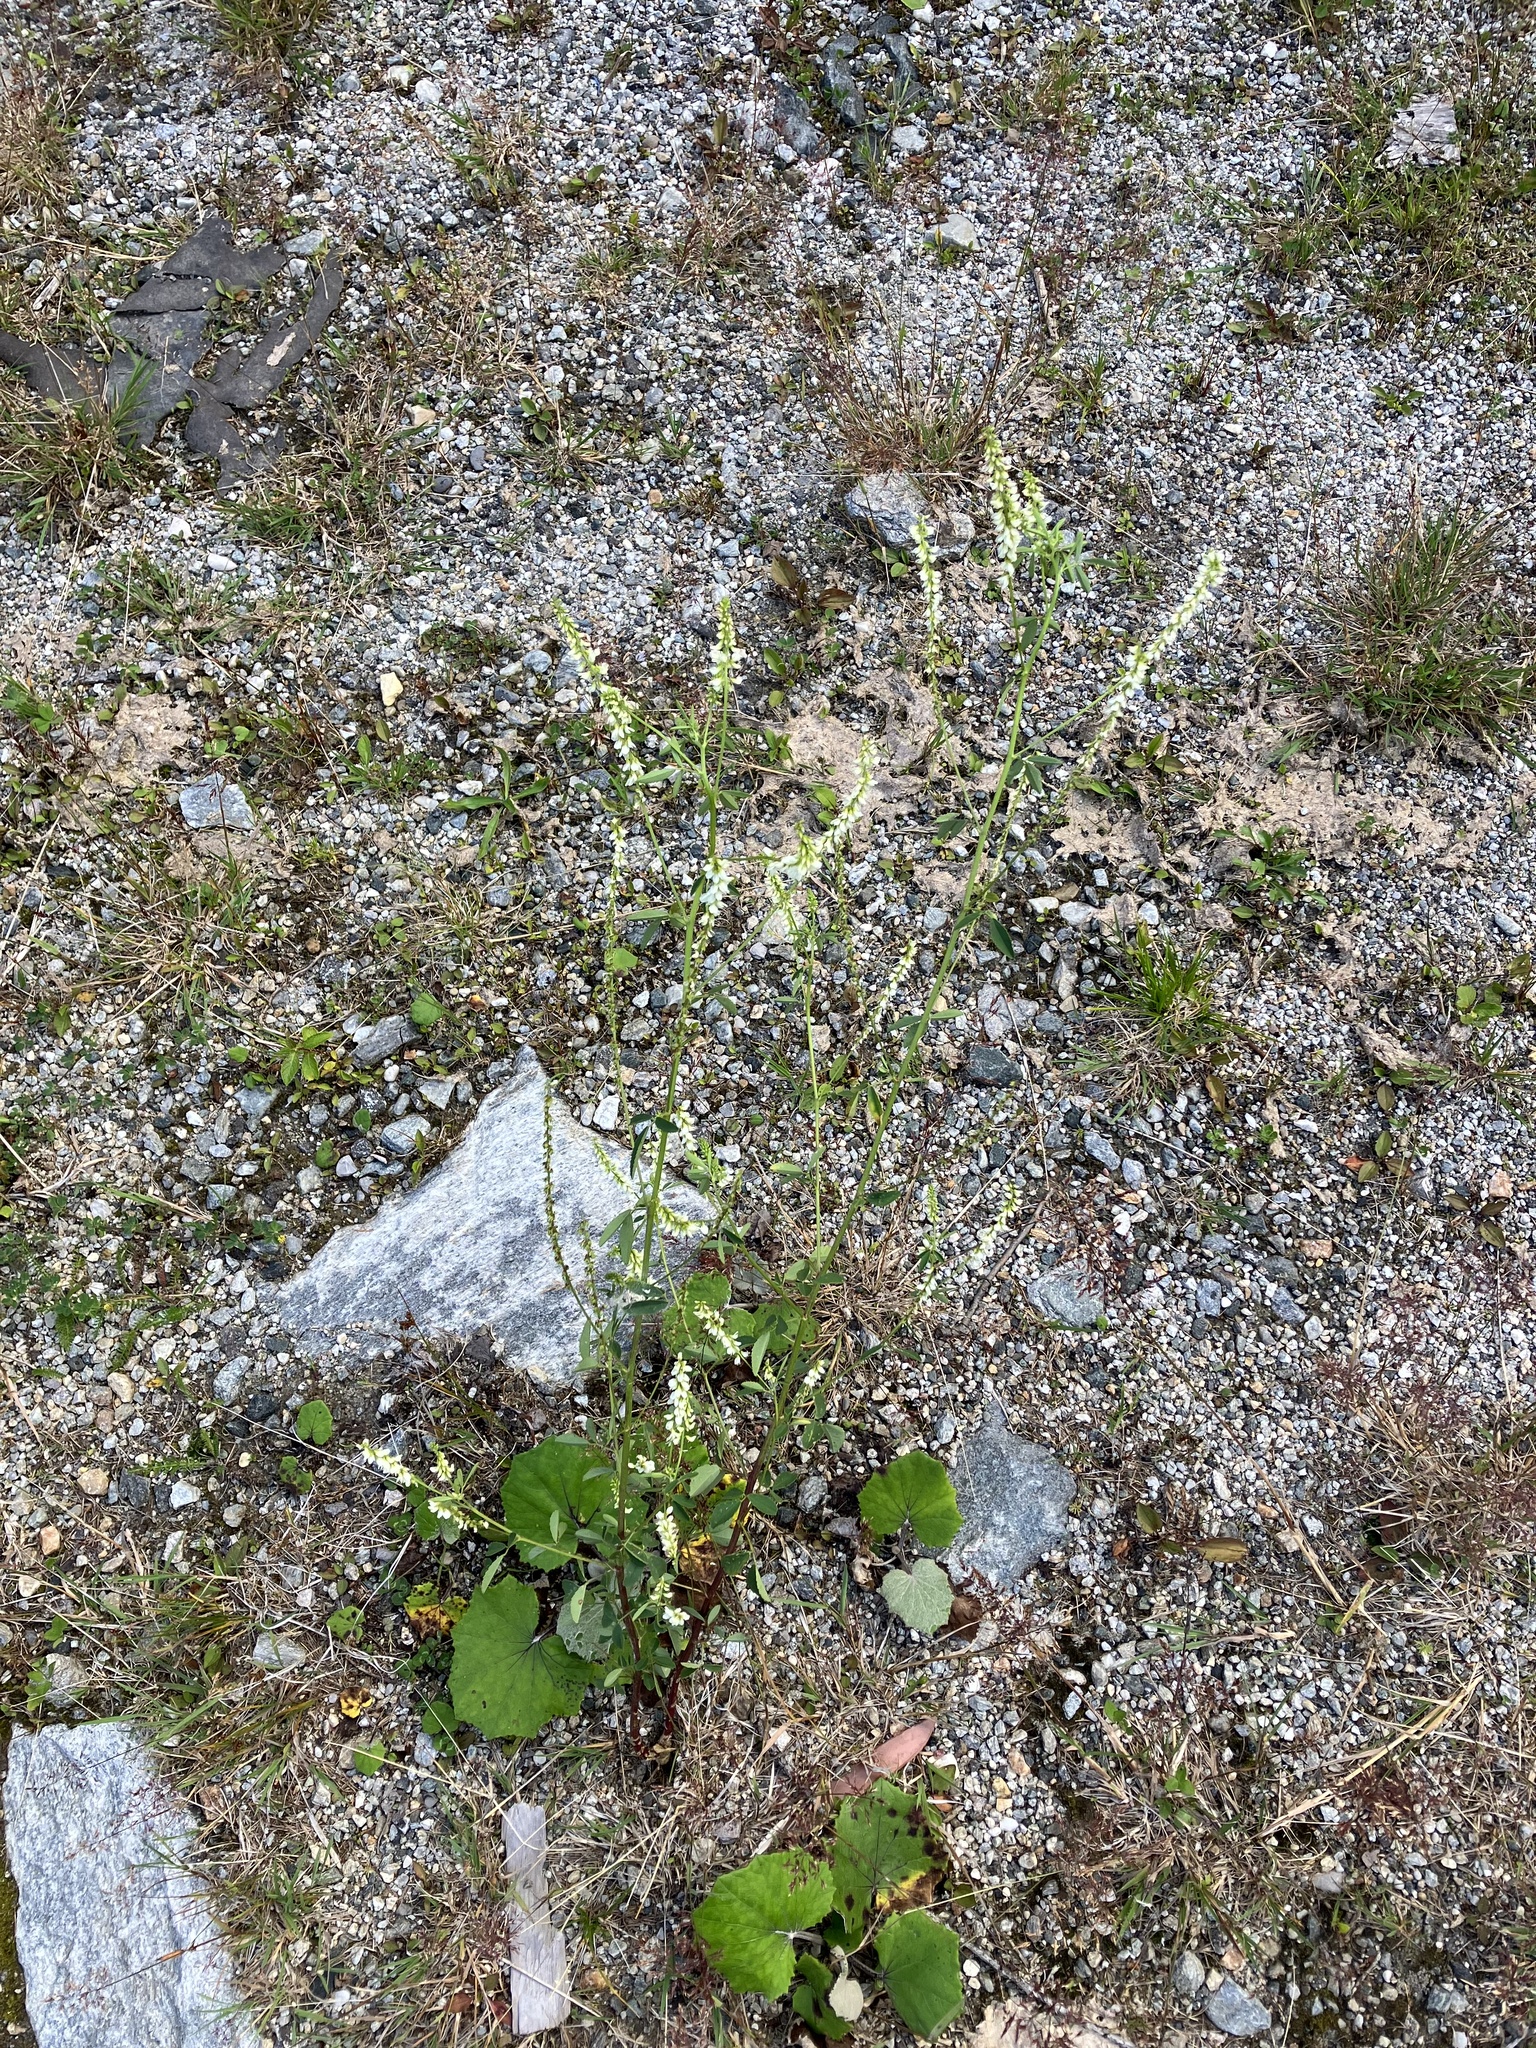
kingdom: Plantae
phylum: Tracheophyta
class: Magnoliopsida
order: Fabales
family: Fabaceae
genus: Melilotus
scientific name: Melilotus albus
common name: White melilot
